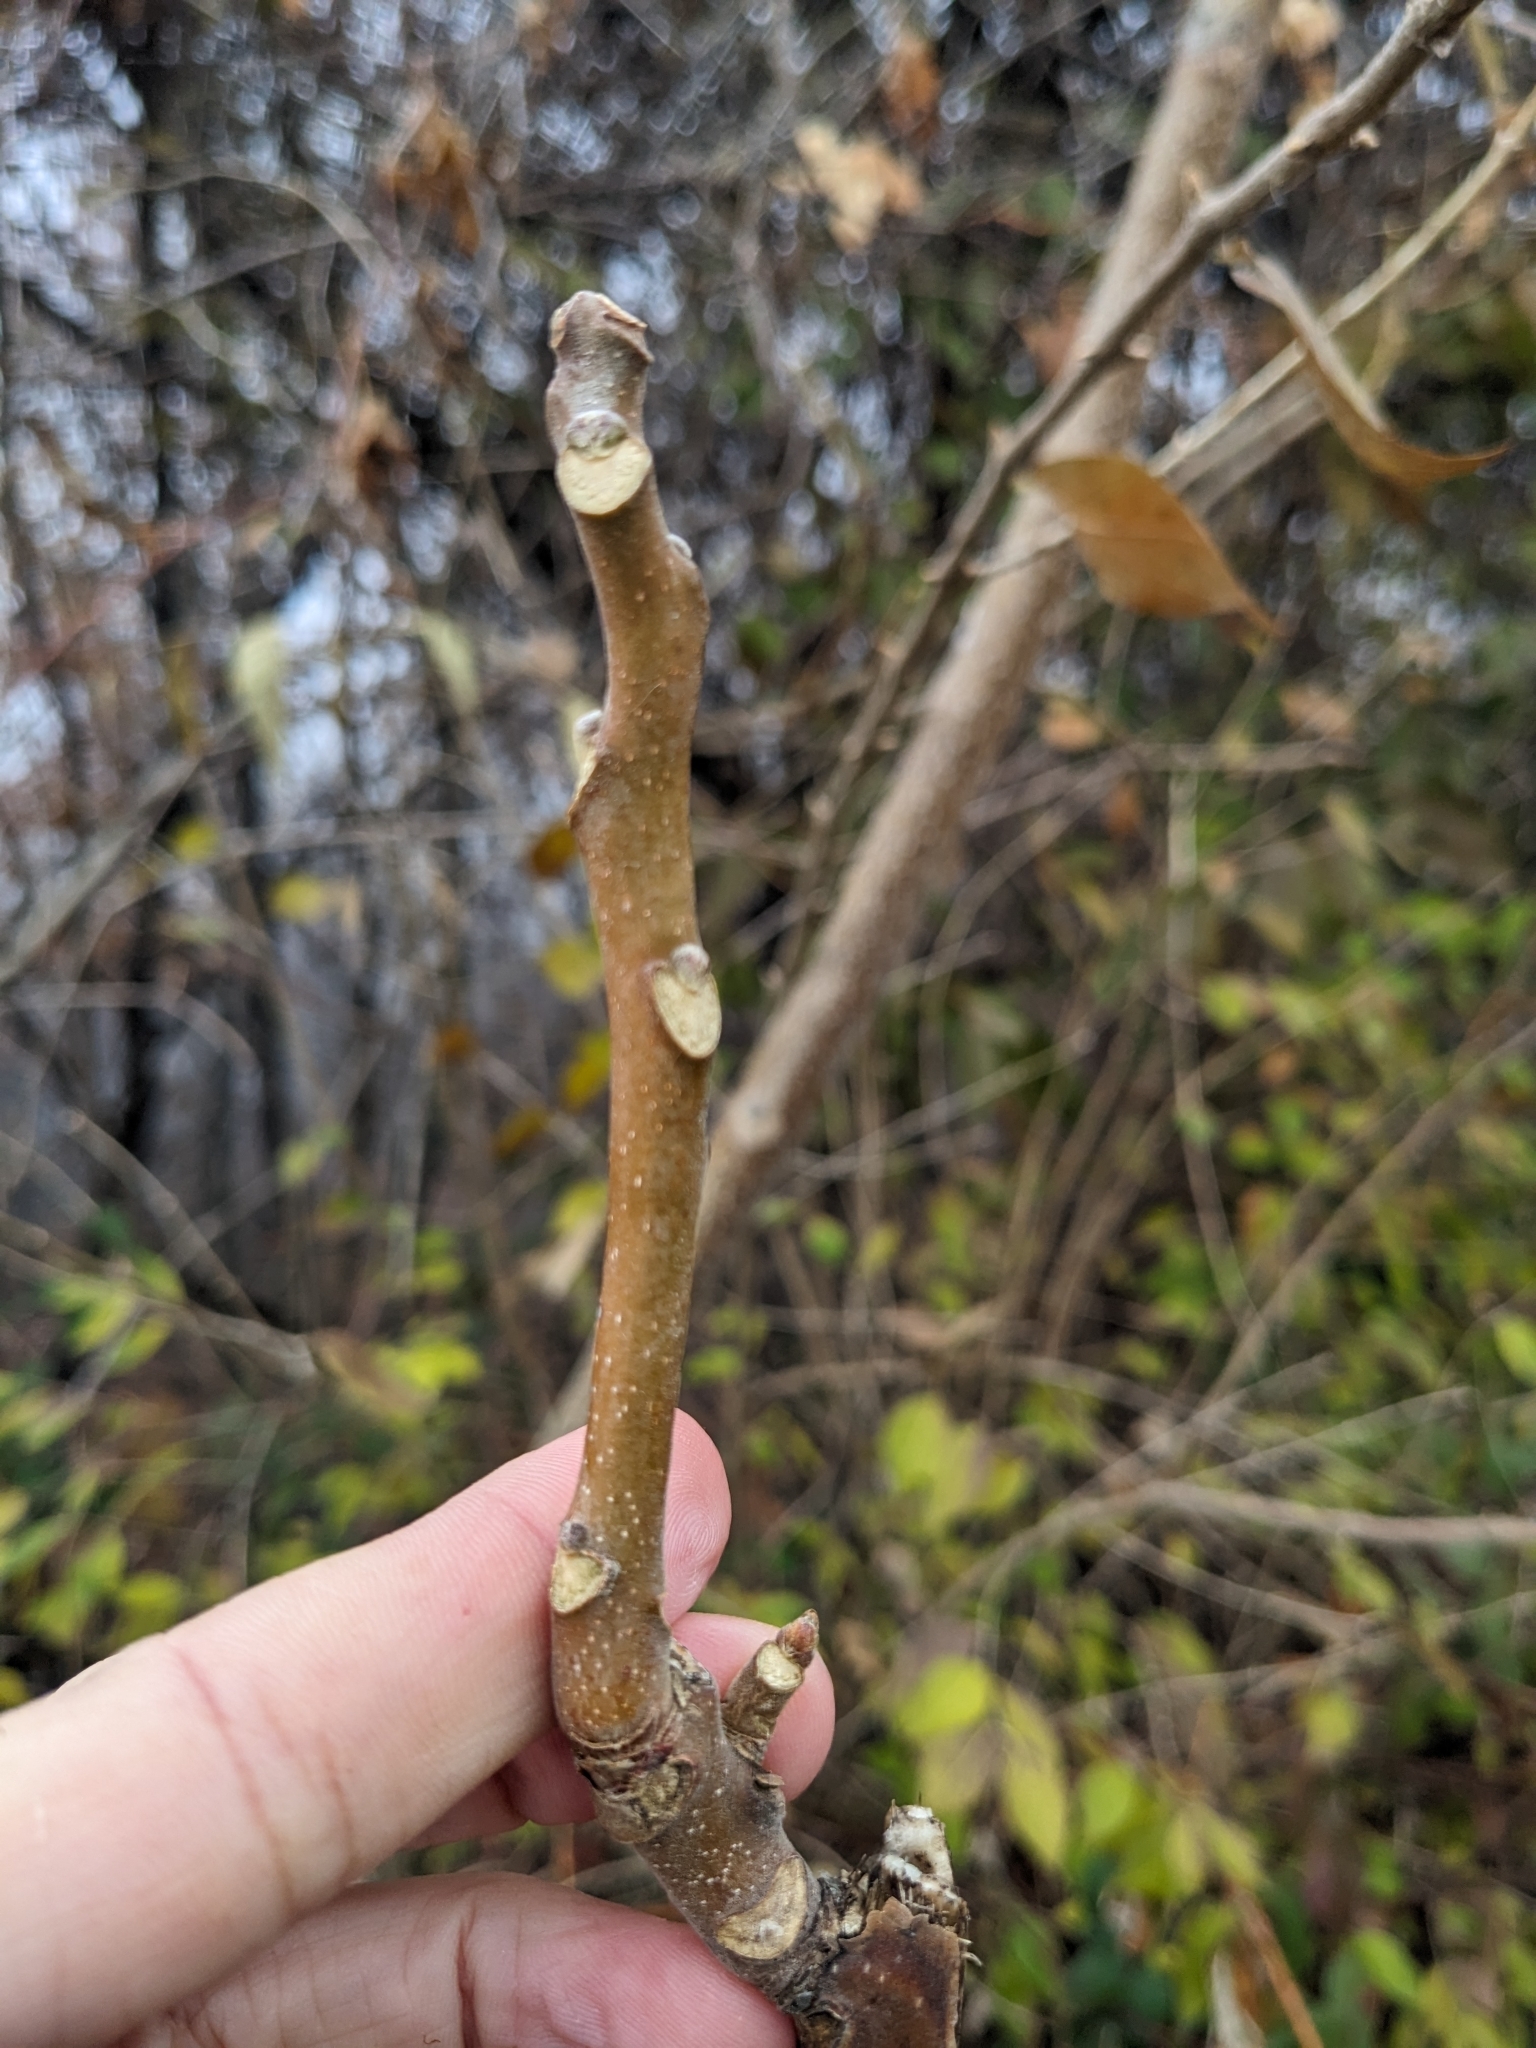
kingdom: Plantae
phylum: Tracheophyta
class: Magnoliopsida
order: Sapindales
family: Simaroubaceae
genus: Ailanthus
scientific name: Ailanthus altissima
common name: Tree-of-heaven
